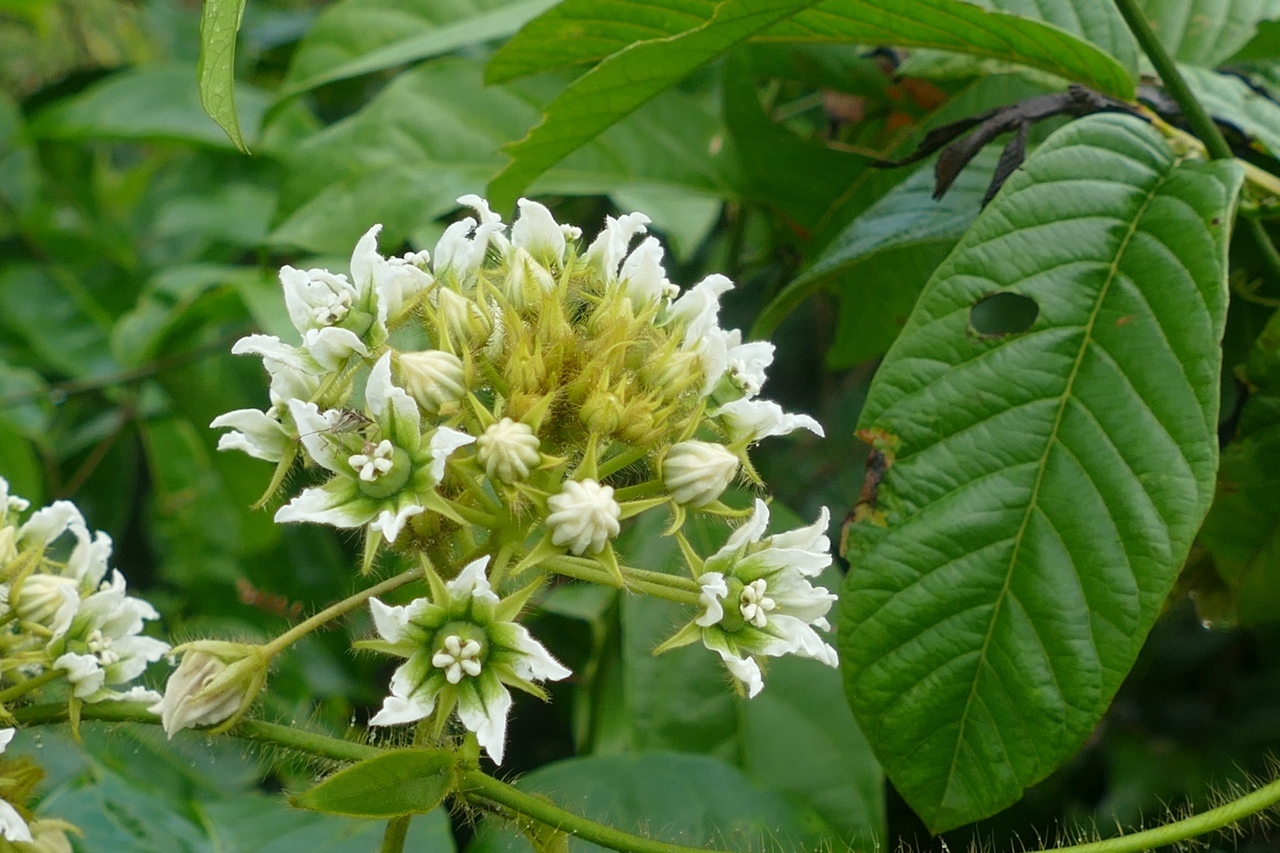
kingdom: Plantae
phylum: Tracheophyta
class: Magnoliopsida
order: Gentianales
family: Apocynaceae
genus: Fischeria
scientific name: Fischeria stellata
